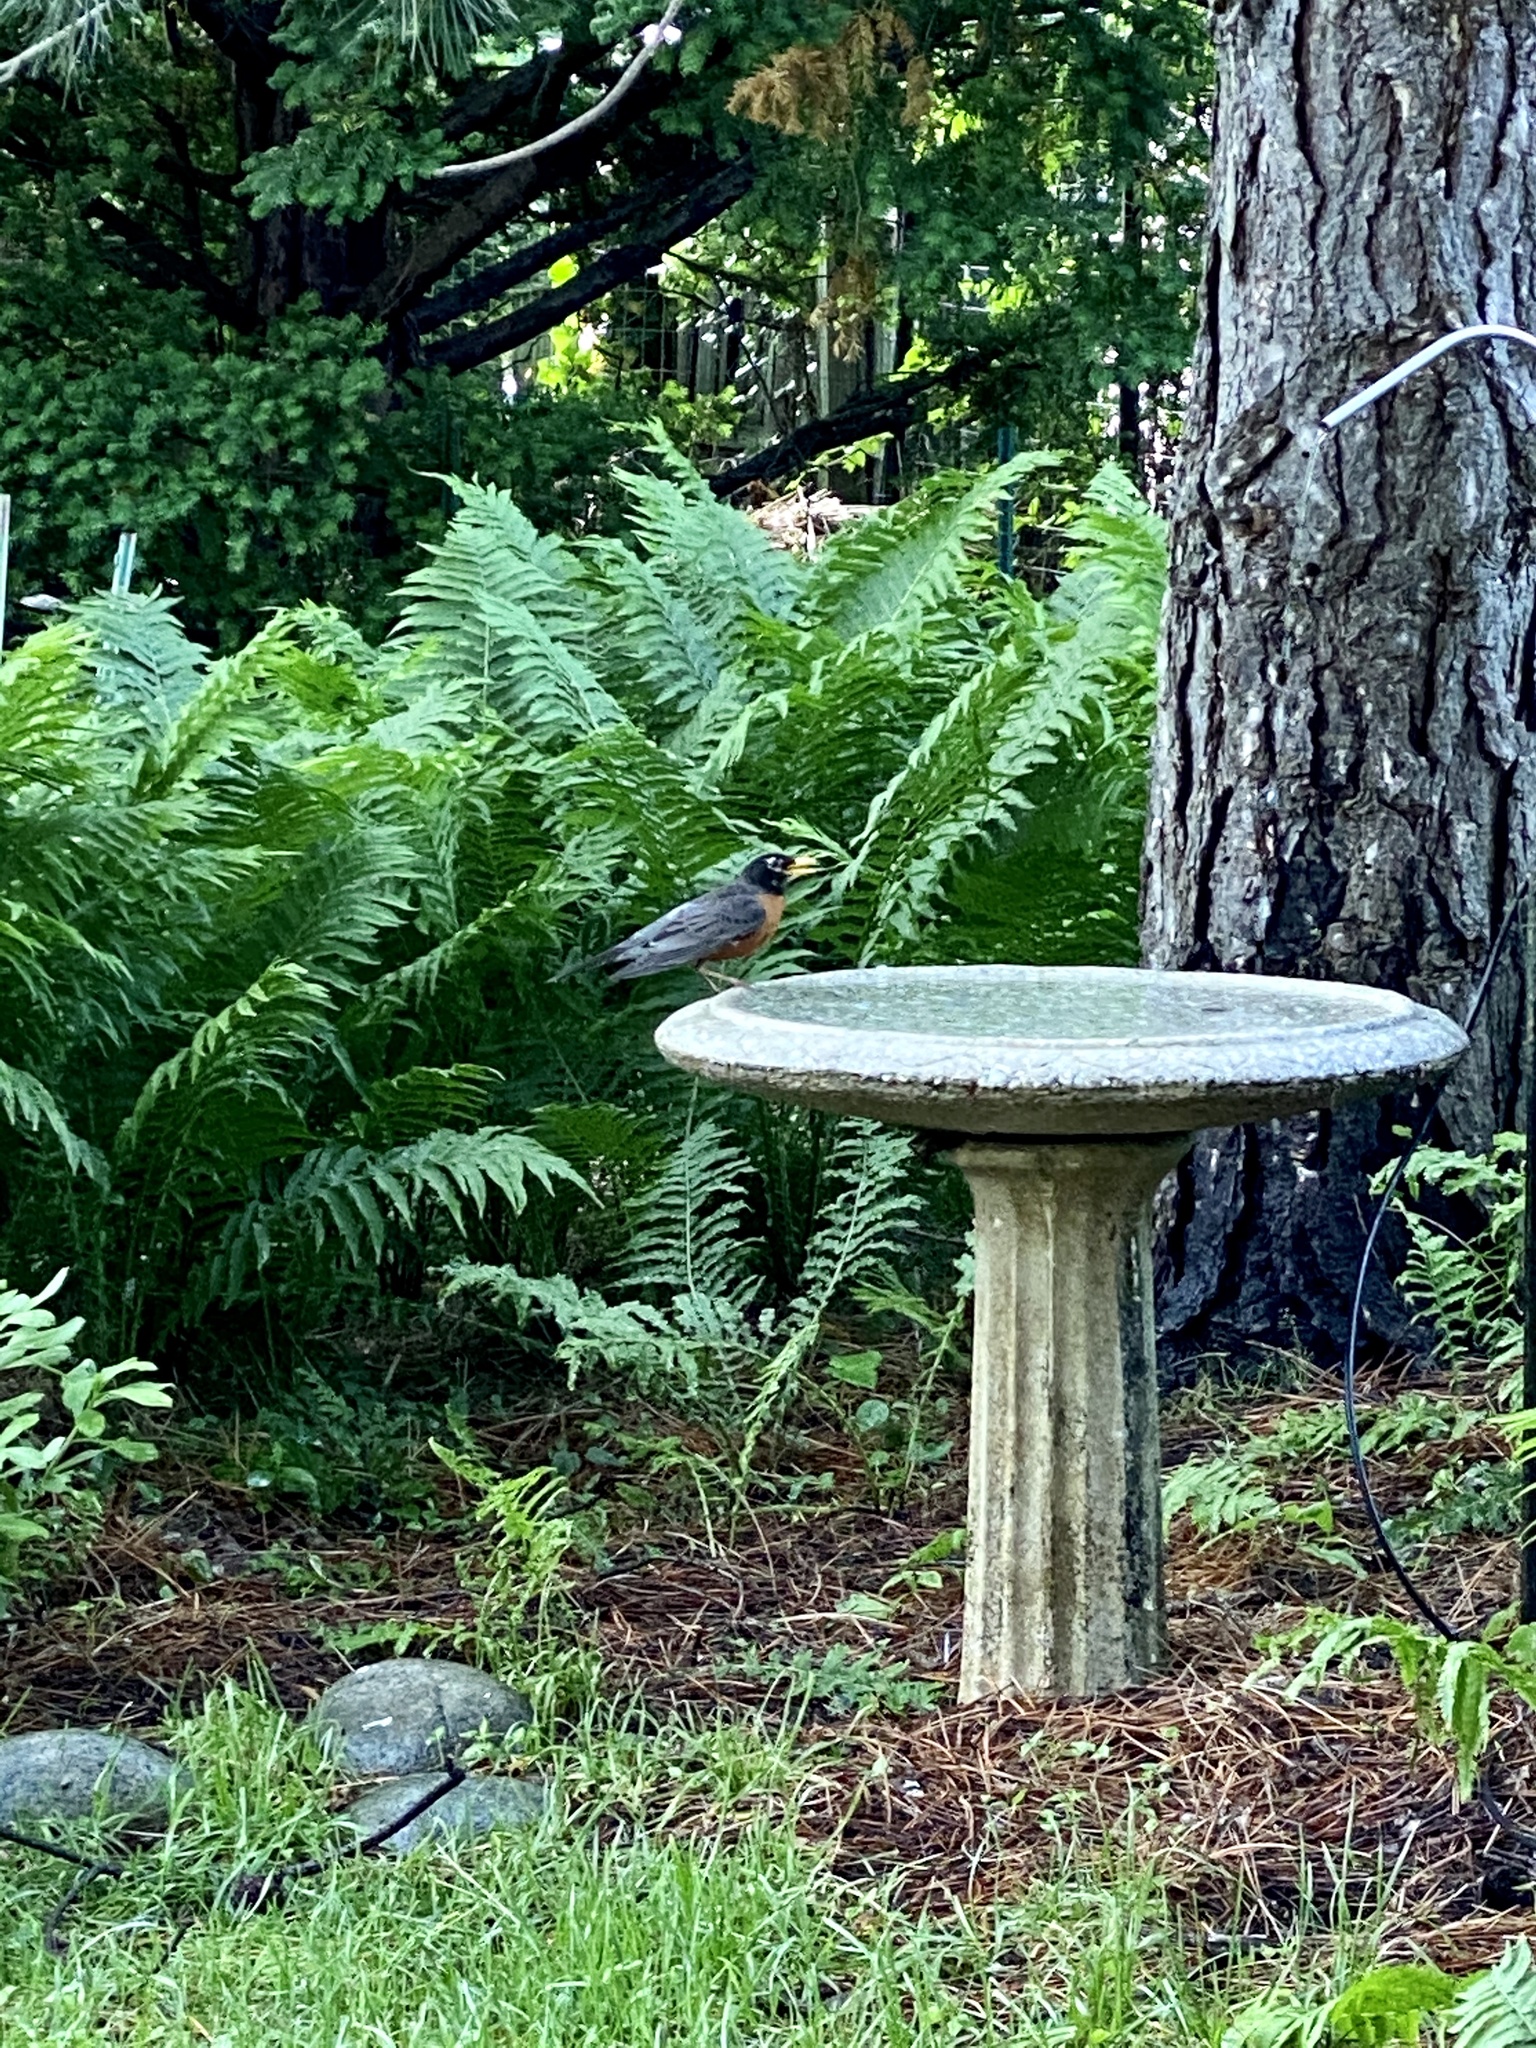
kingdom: Animalia
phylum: Chordata
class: Aves
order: Passeriformes
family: Turdidae
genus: Turdus
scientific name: Turdus migratorius
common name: American robin
